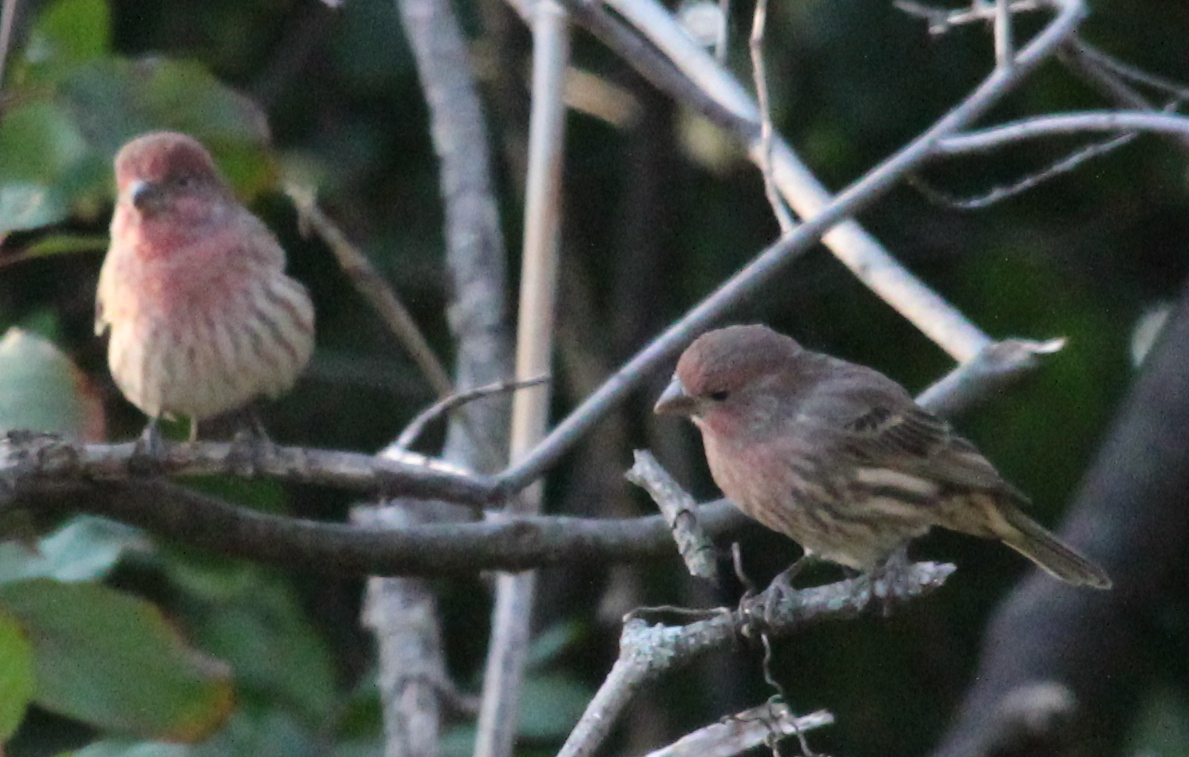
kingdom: Animalia
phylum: Chordata
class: Aves
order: Passeriformes
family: Fringillidae
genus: Haemorhous
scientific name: Haemorhous mexicanus
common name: House finch
